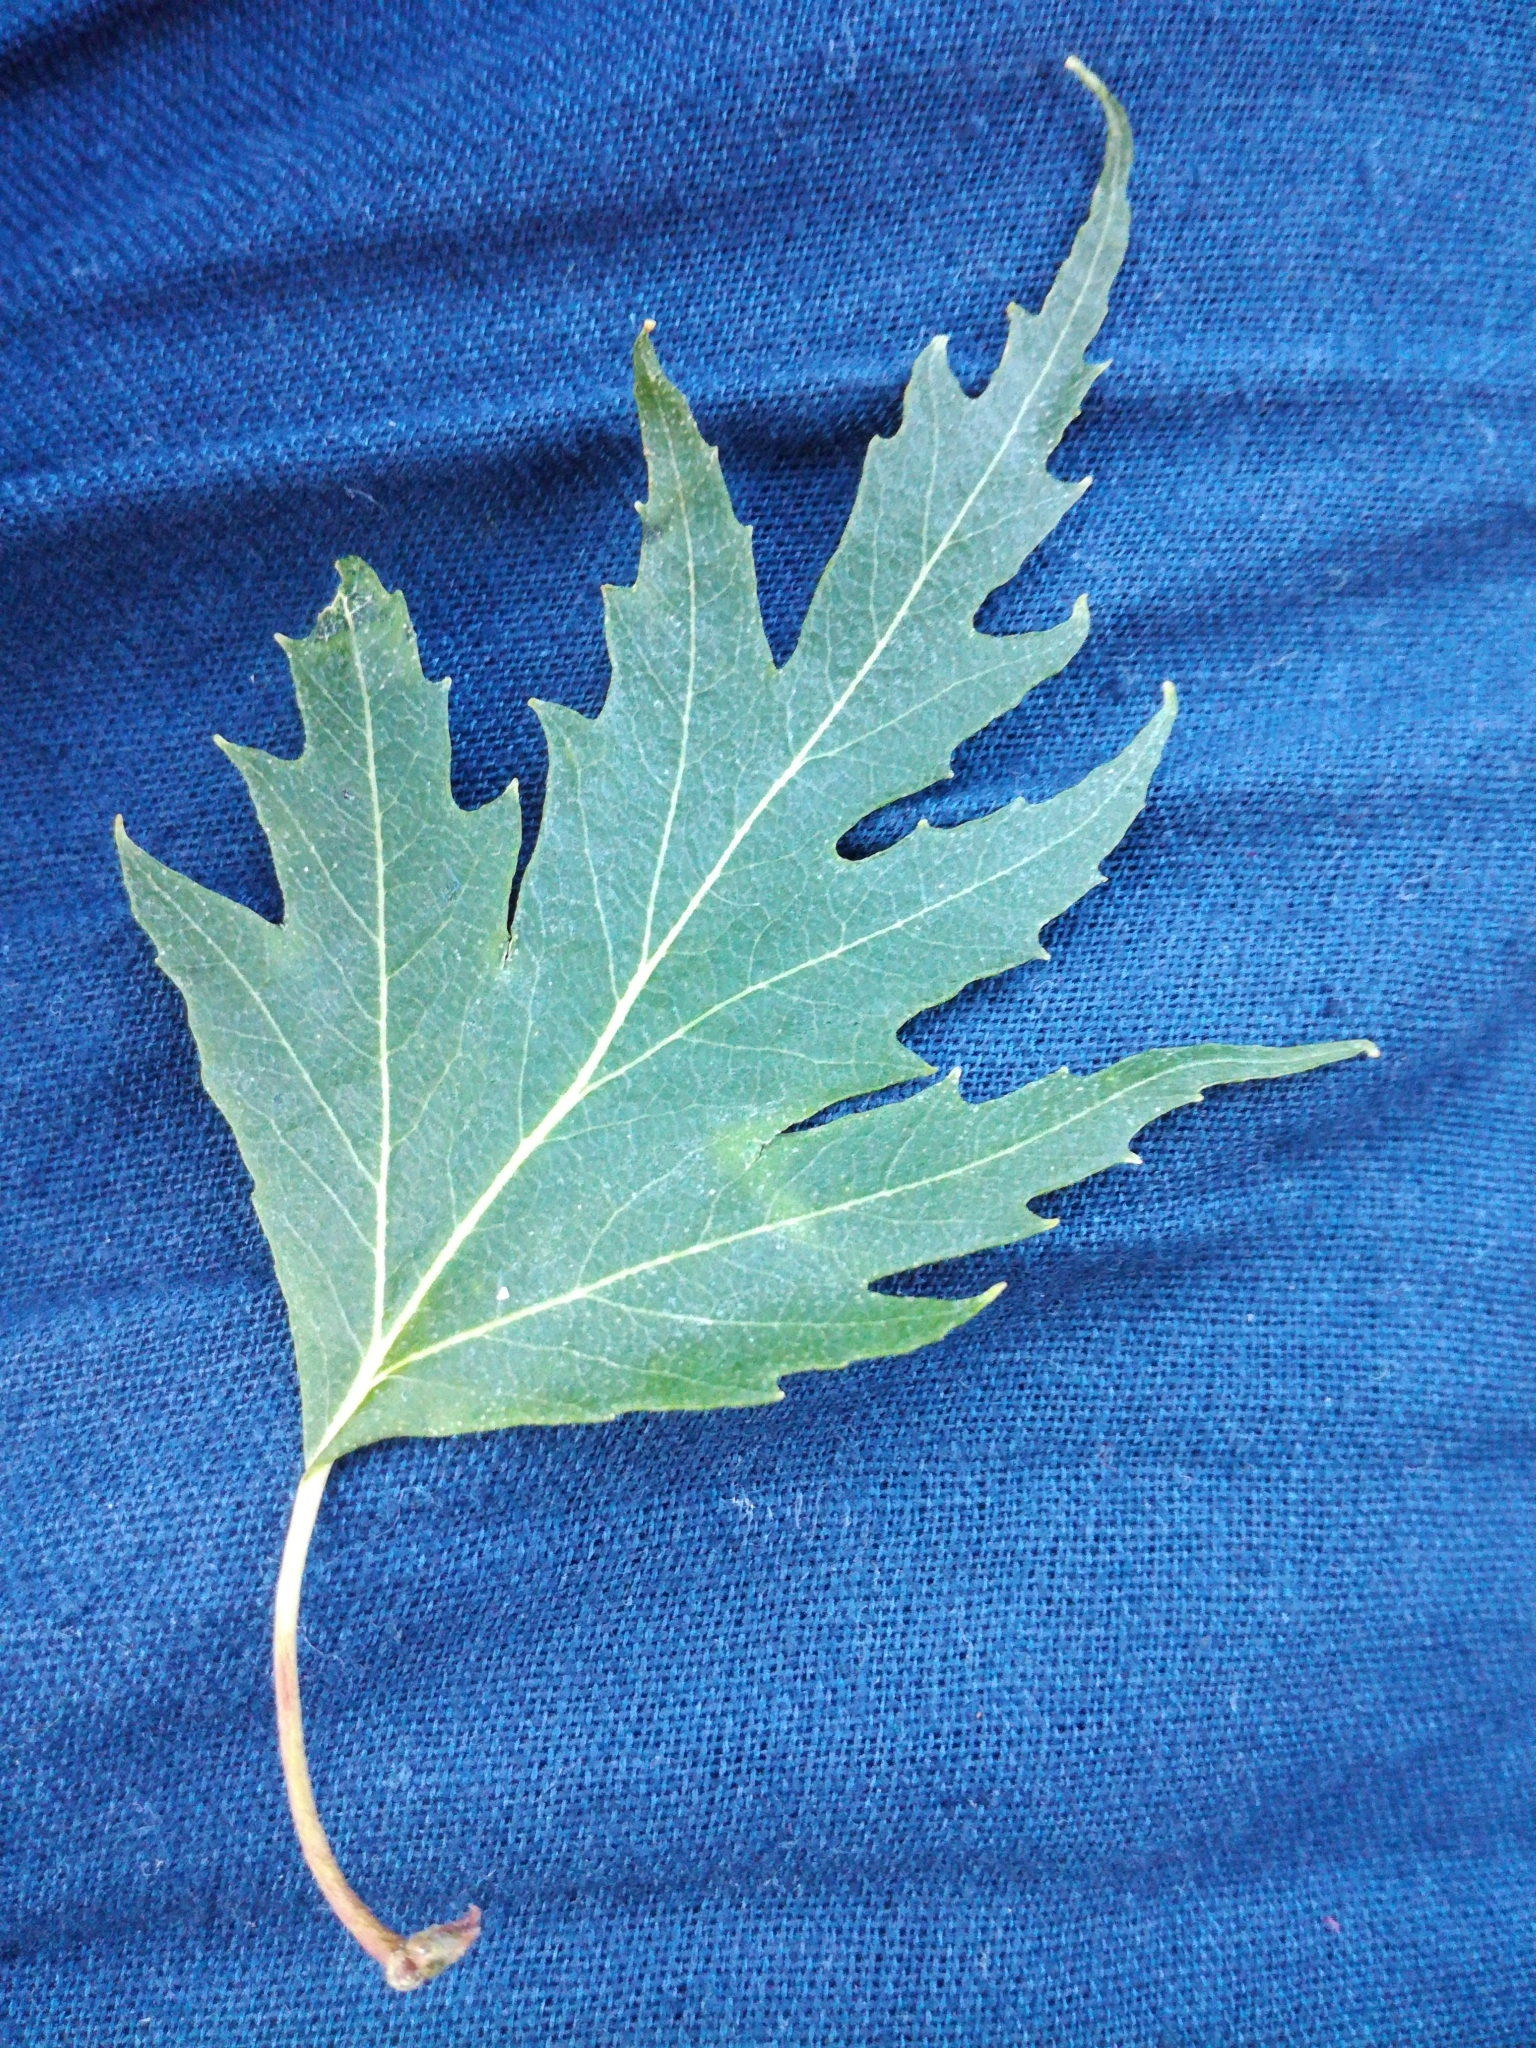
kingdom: Plantae
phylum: Tracheophyta
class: Magnoliopsida
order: Fagales
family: Betulaceae
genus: Betula
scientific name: Betula pendula
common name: Silver birch
